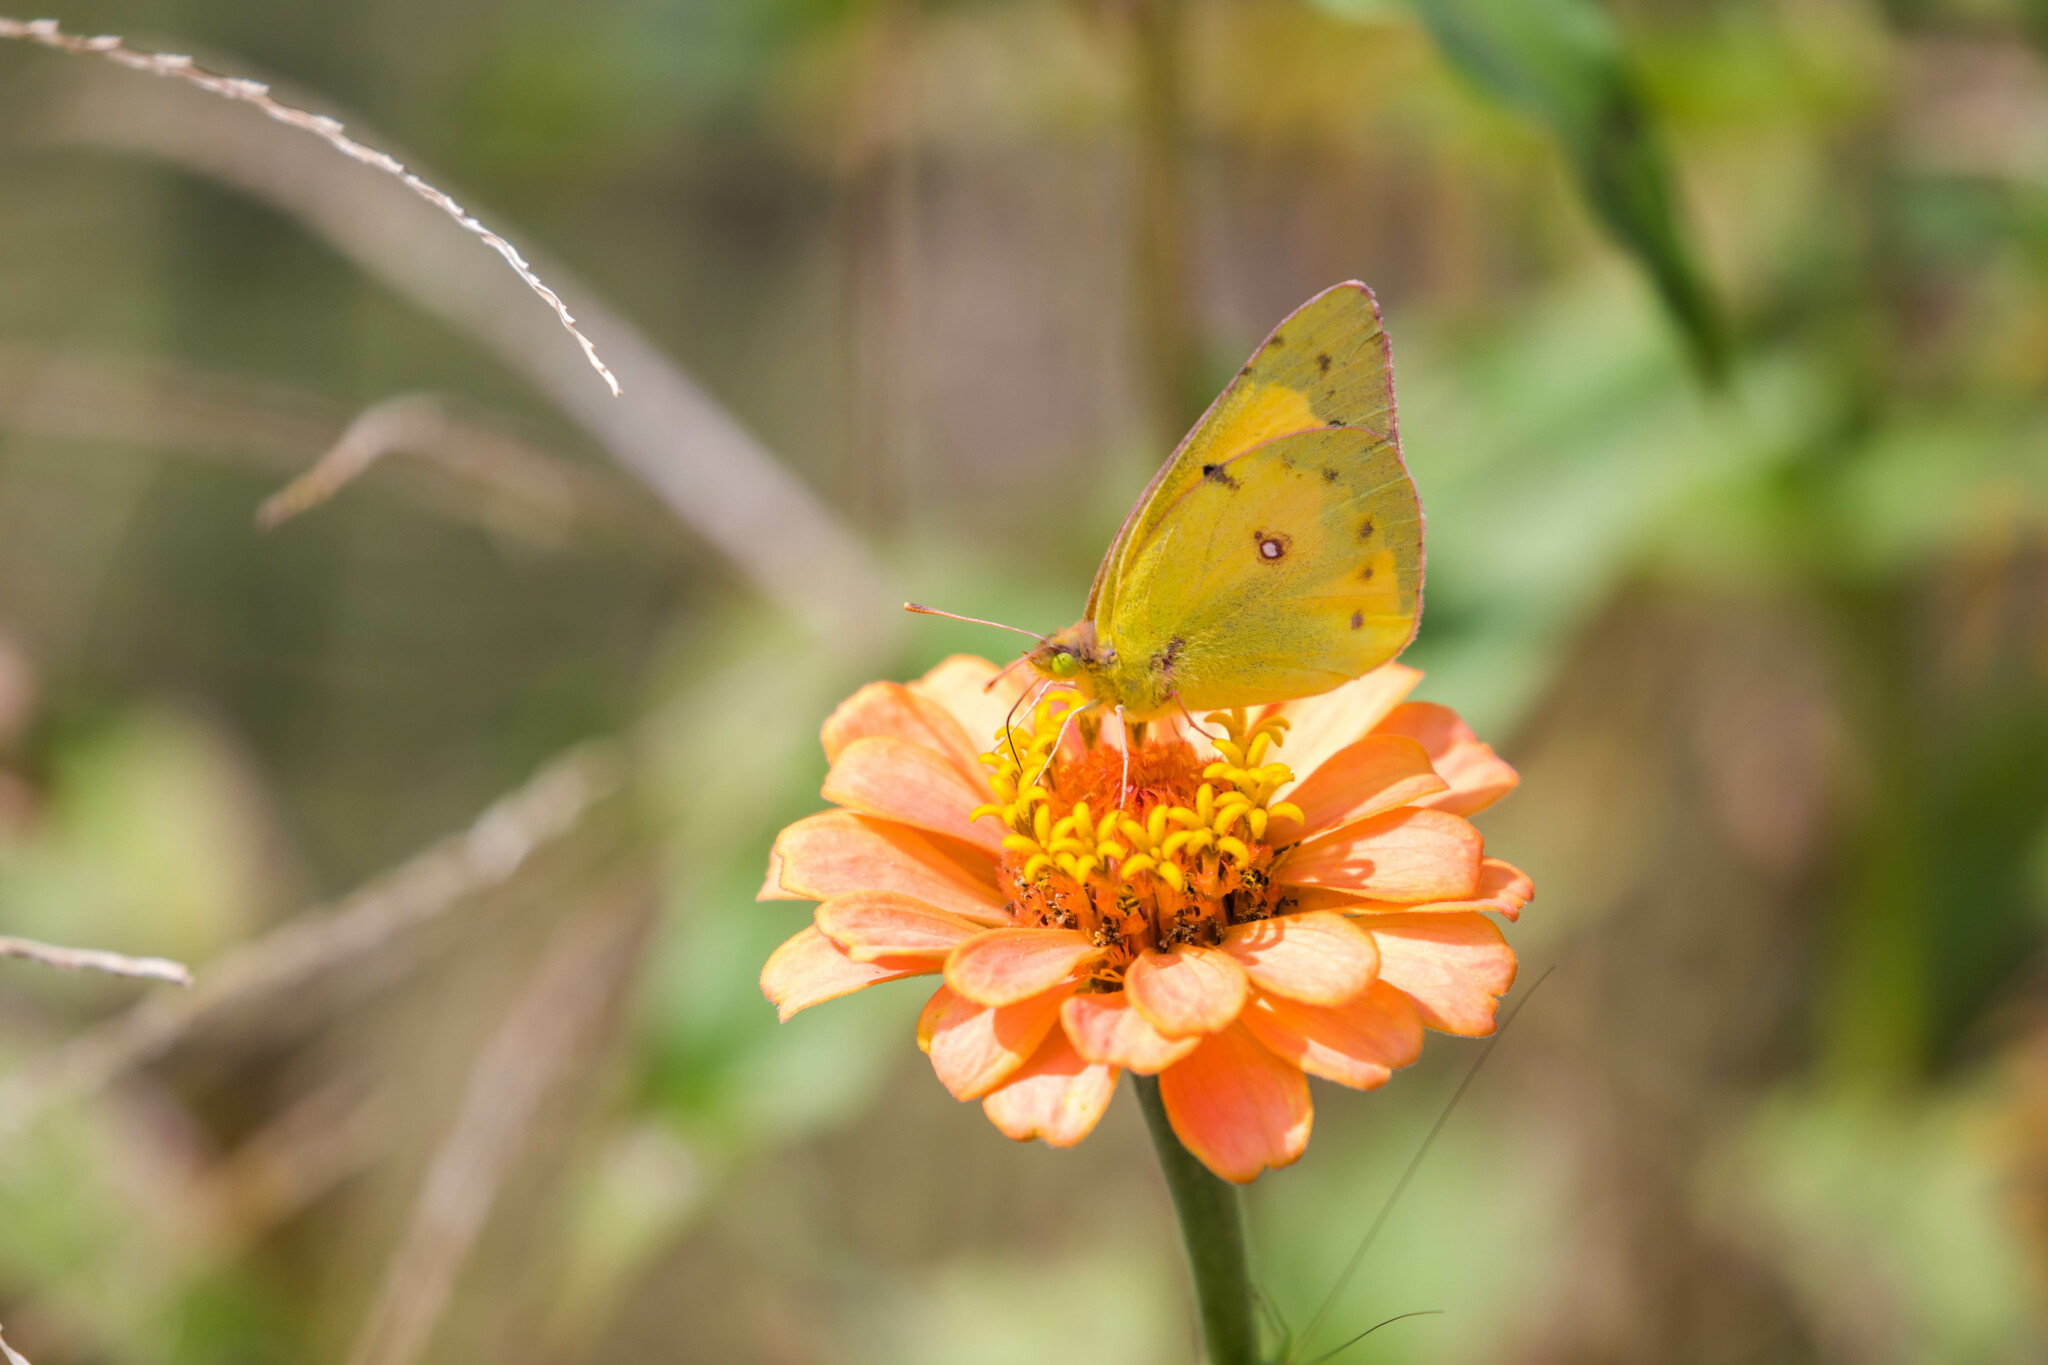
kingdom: Animalia
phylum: Arthropoda
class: Insecta
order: Lepidoptera
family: Pieridae
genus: Colias
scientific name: Colias eurytheme
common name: Alfalfa butterfly
